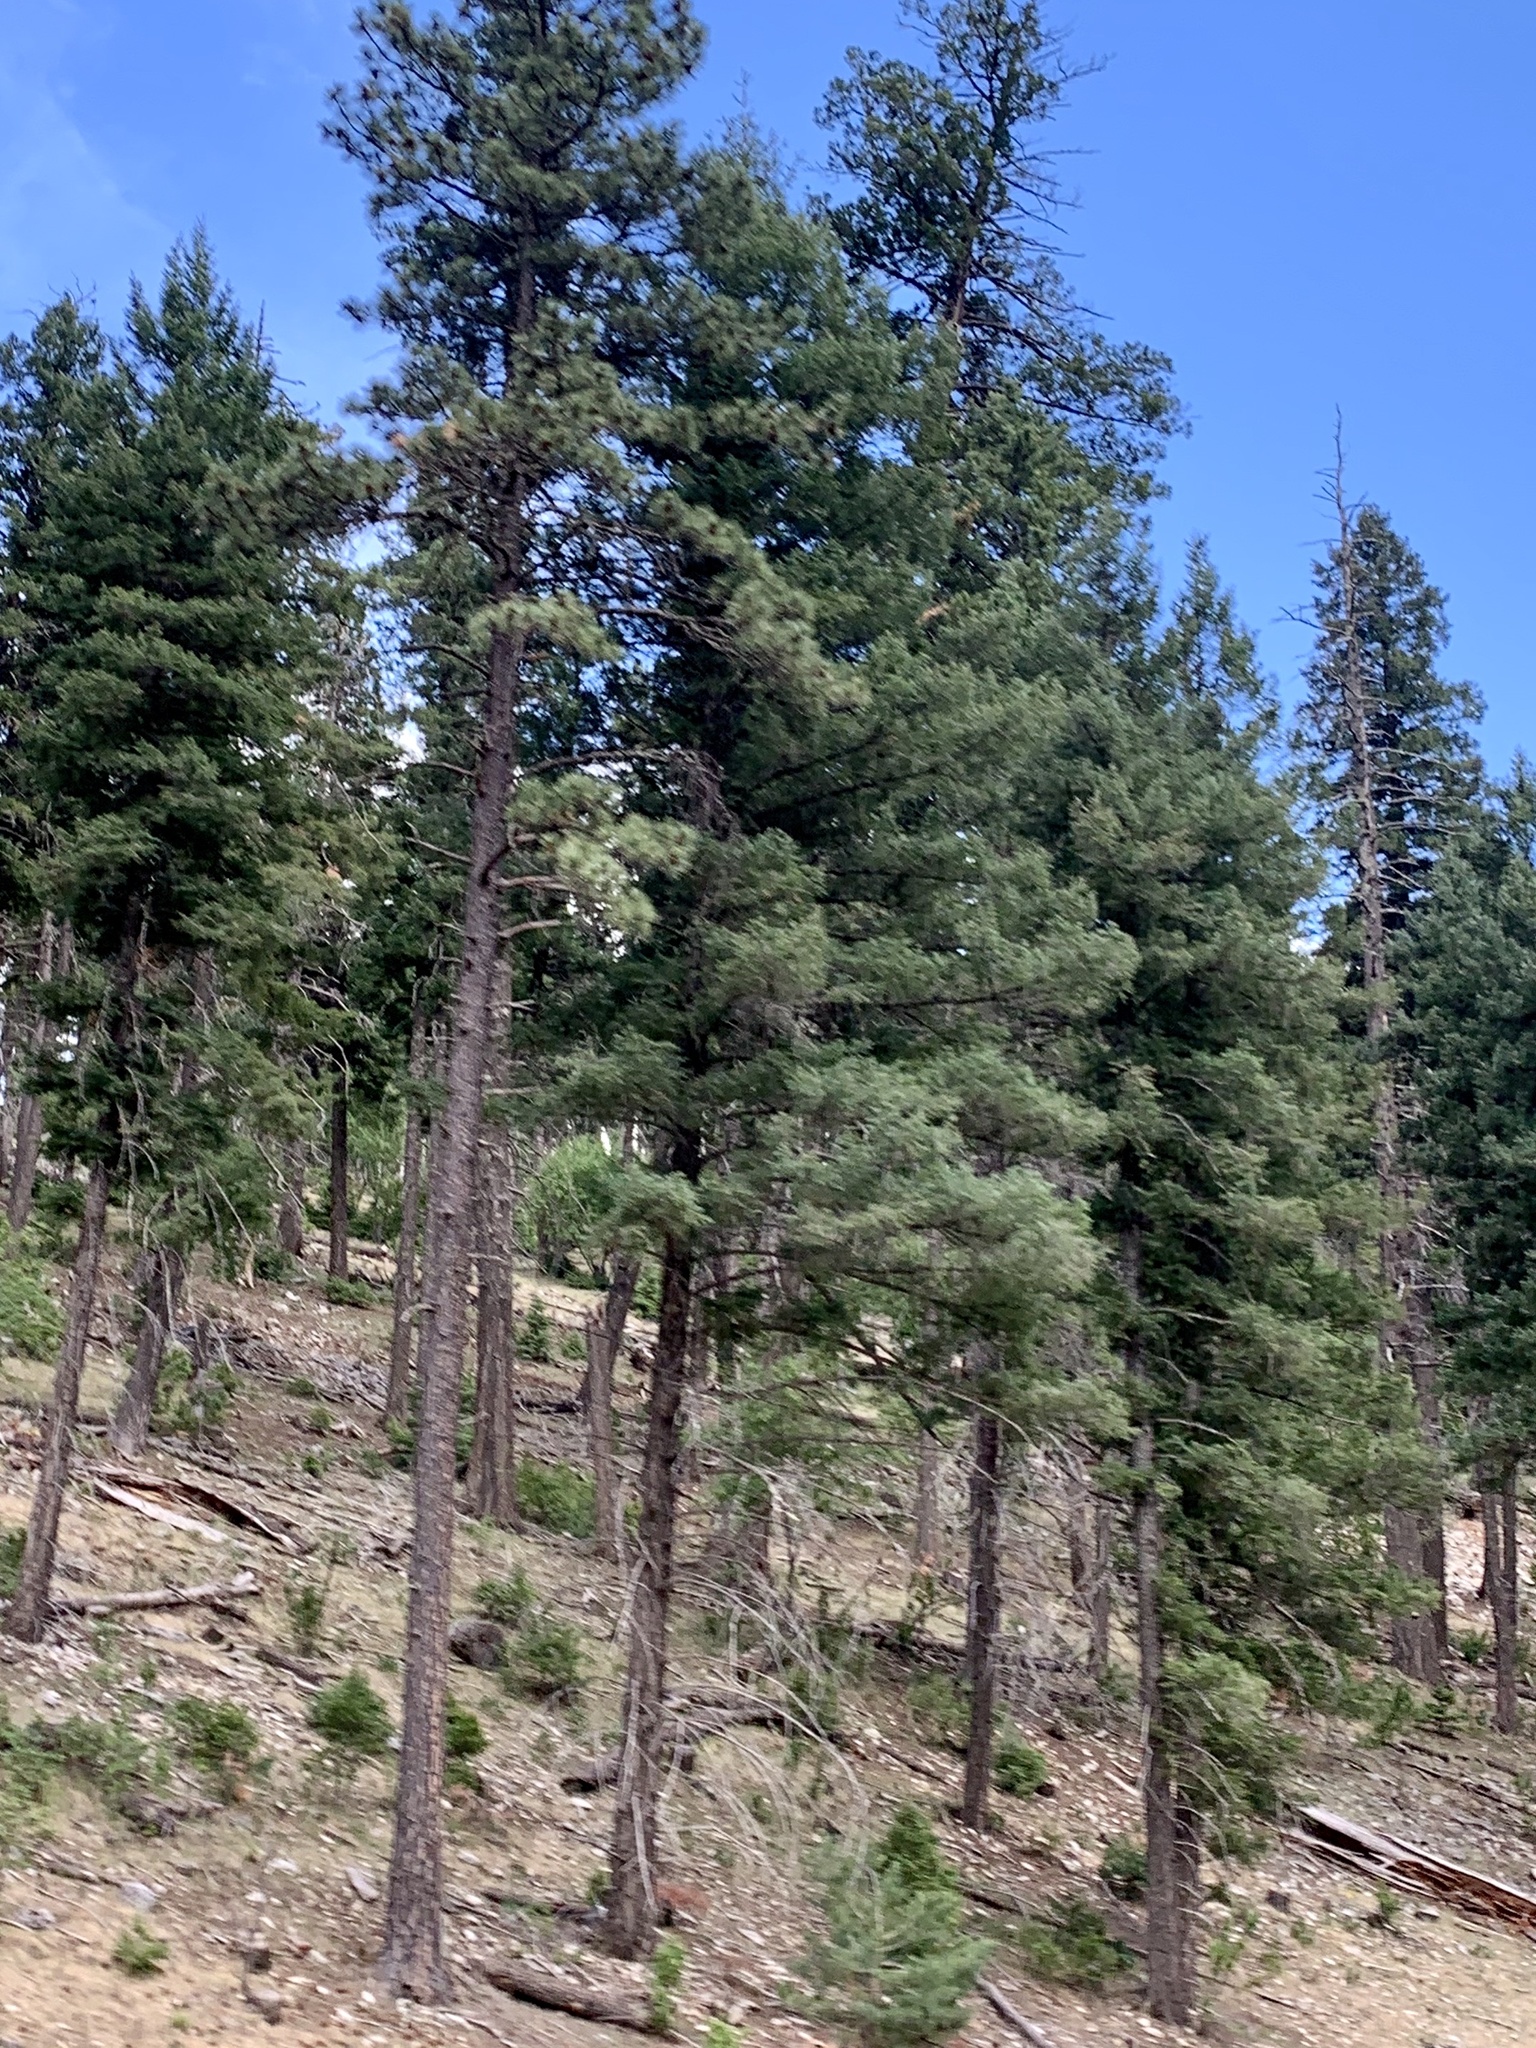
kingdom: Plantae
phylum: Tracheophyta
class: Pinopsida
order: Pinales
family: Pinaceae
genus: Pinus
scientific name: Pinus ponderosa
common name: Western yellow-pine
